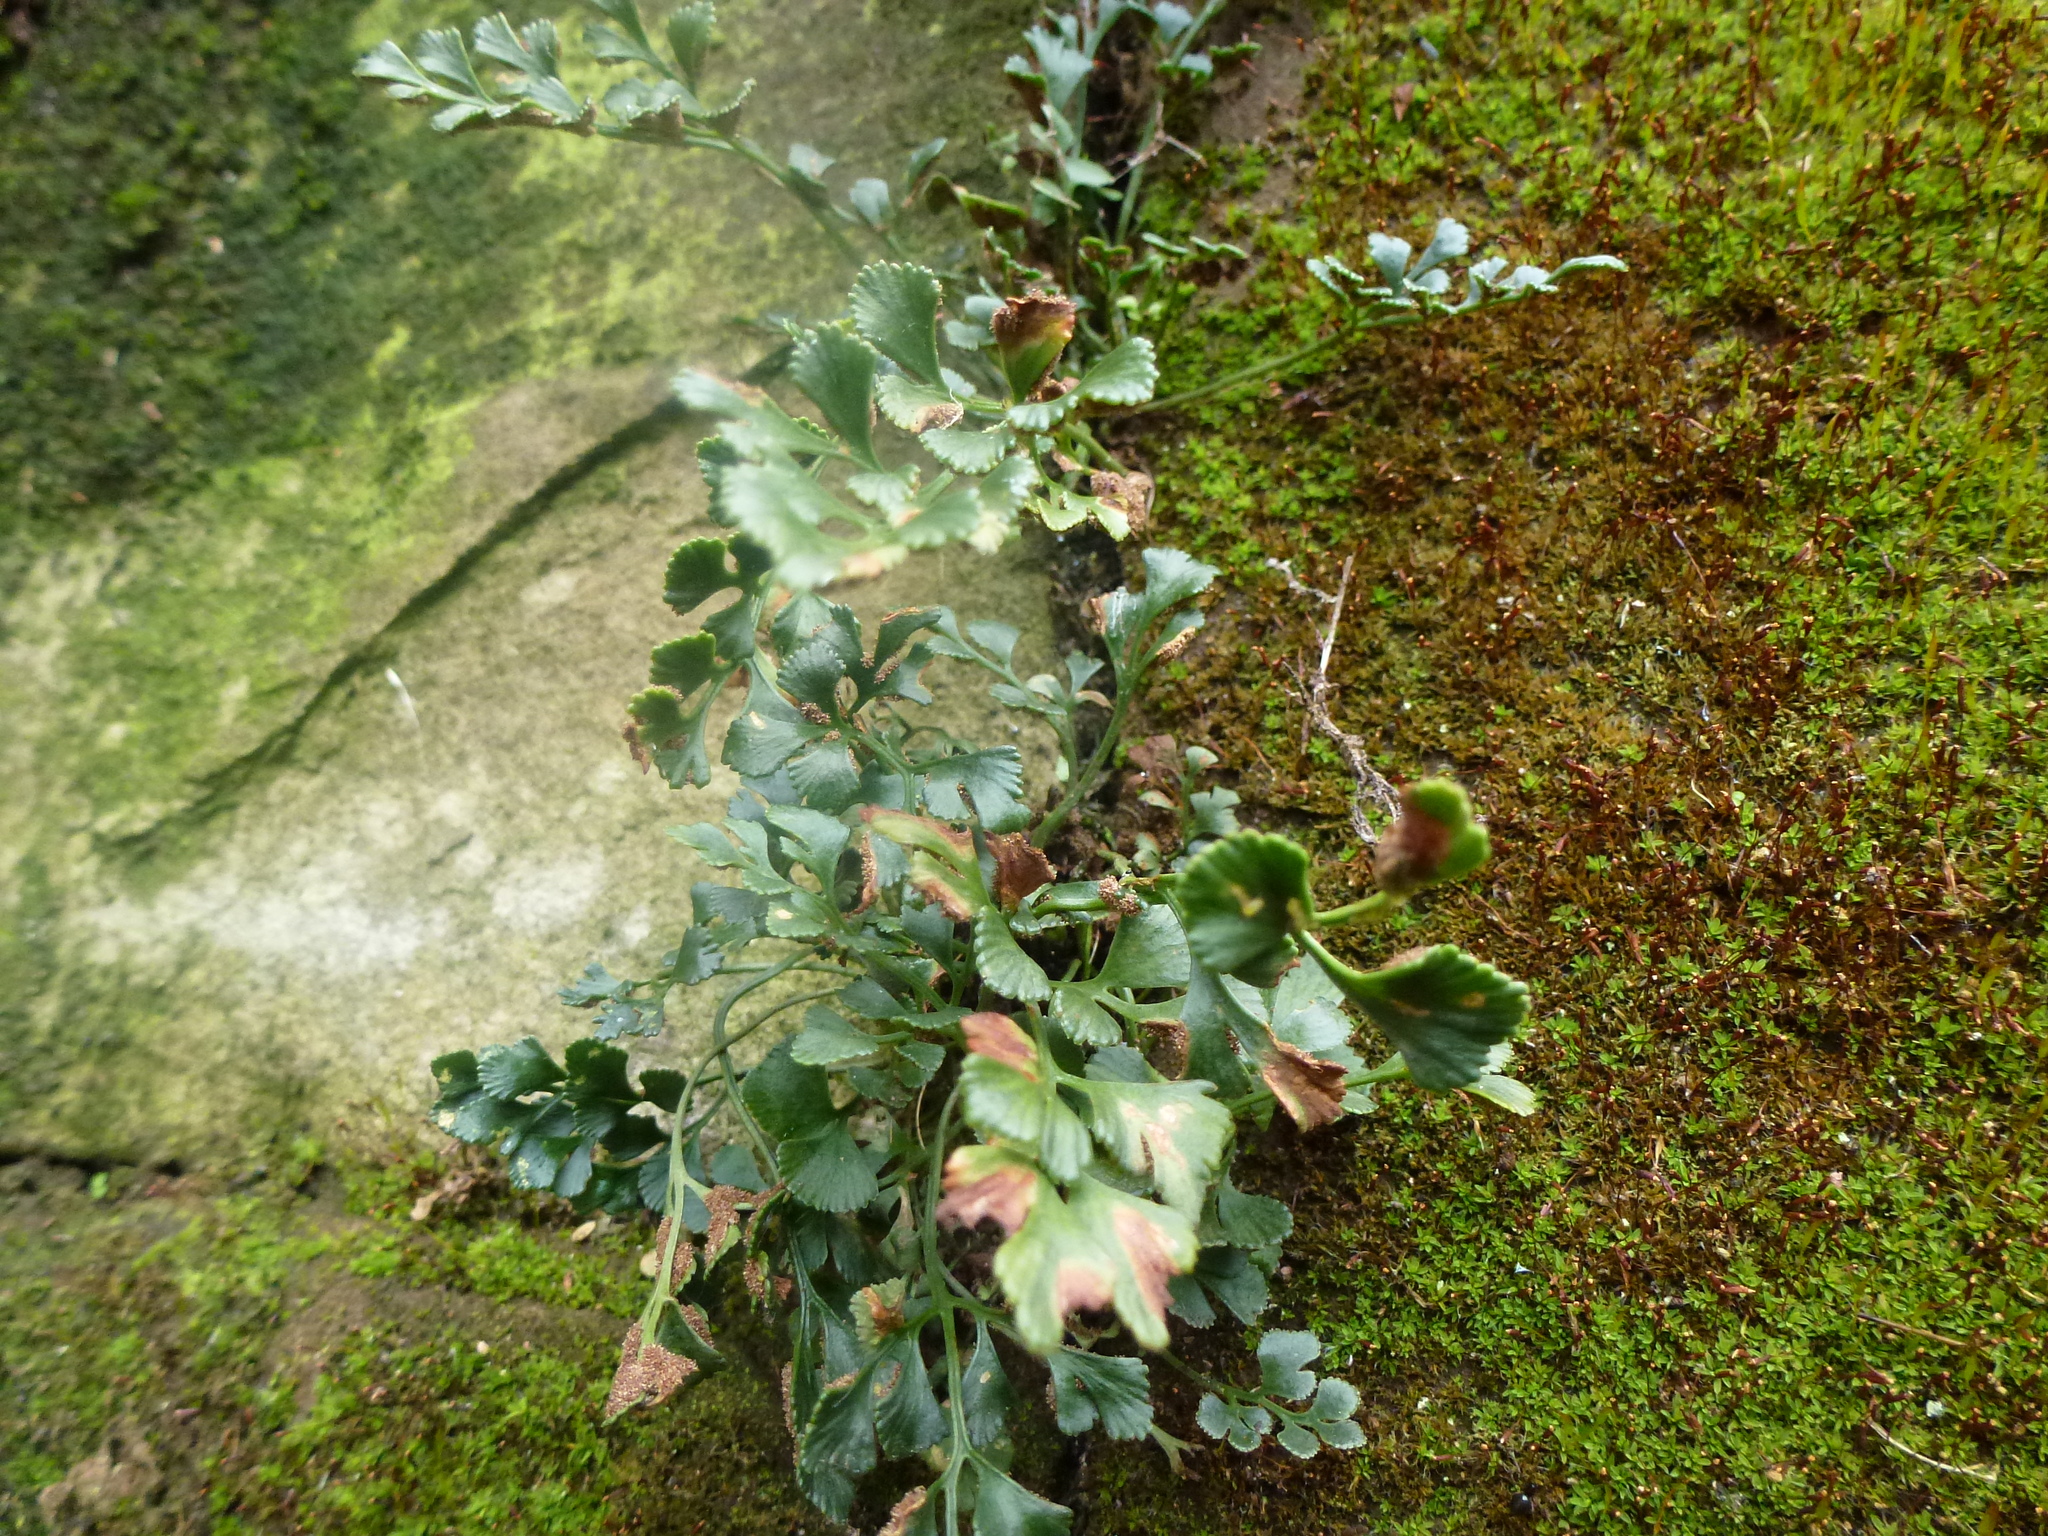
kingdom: Plantae
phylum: Tracheophyta
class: Polypodiopsida
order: Polypodiales
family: Aspleniaceae
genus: Asplenium
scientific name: Asplenium ruta-muraria
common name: Wall-rue
